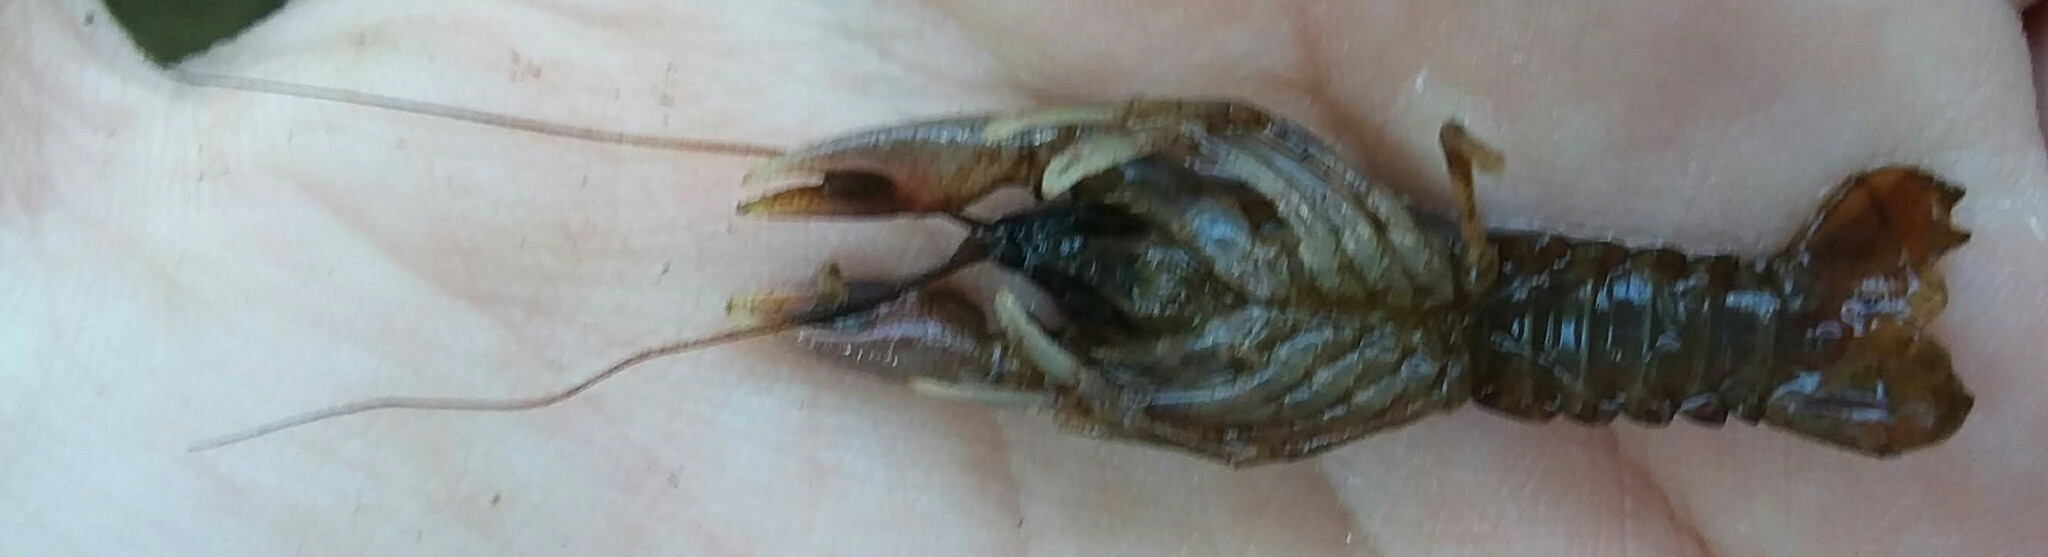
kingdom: Animalia
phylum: Arthropoda
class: Malacostraca
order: Decapoda
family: Cambaridae
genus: Cambarus
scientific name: Cambarus girardianus
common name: Tanback crayfish
